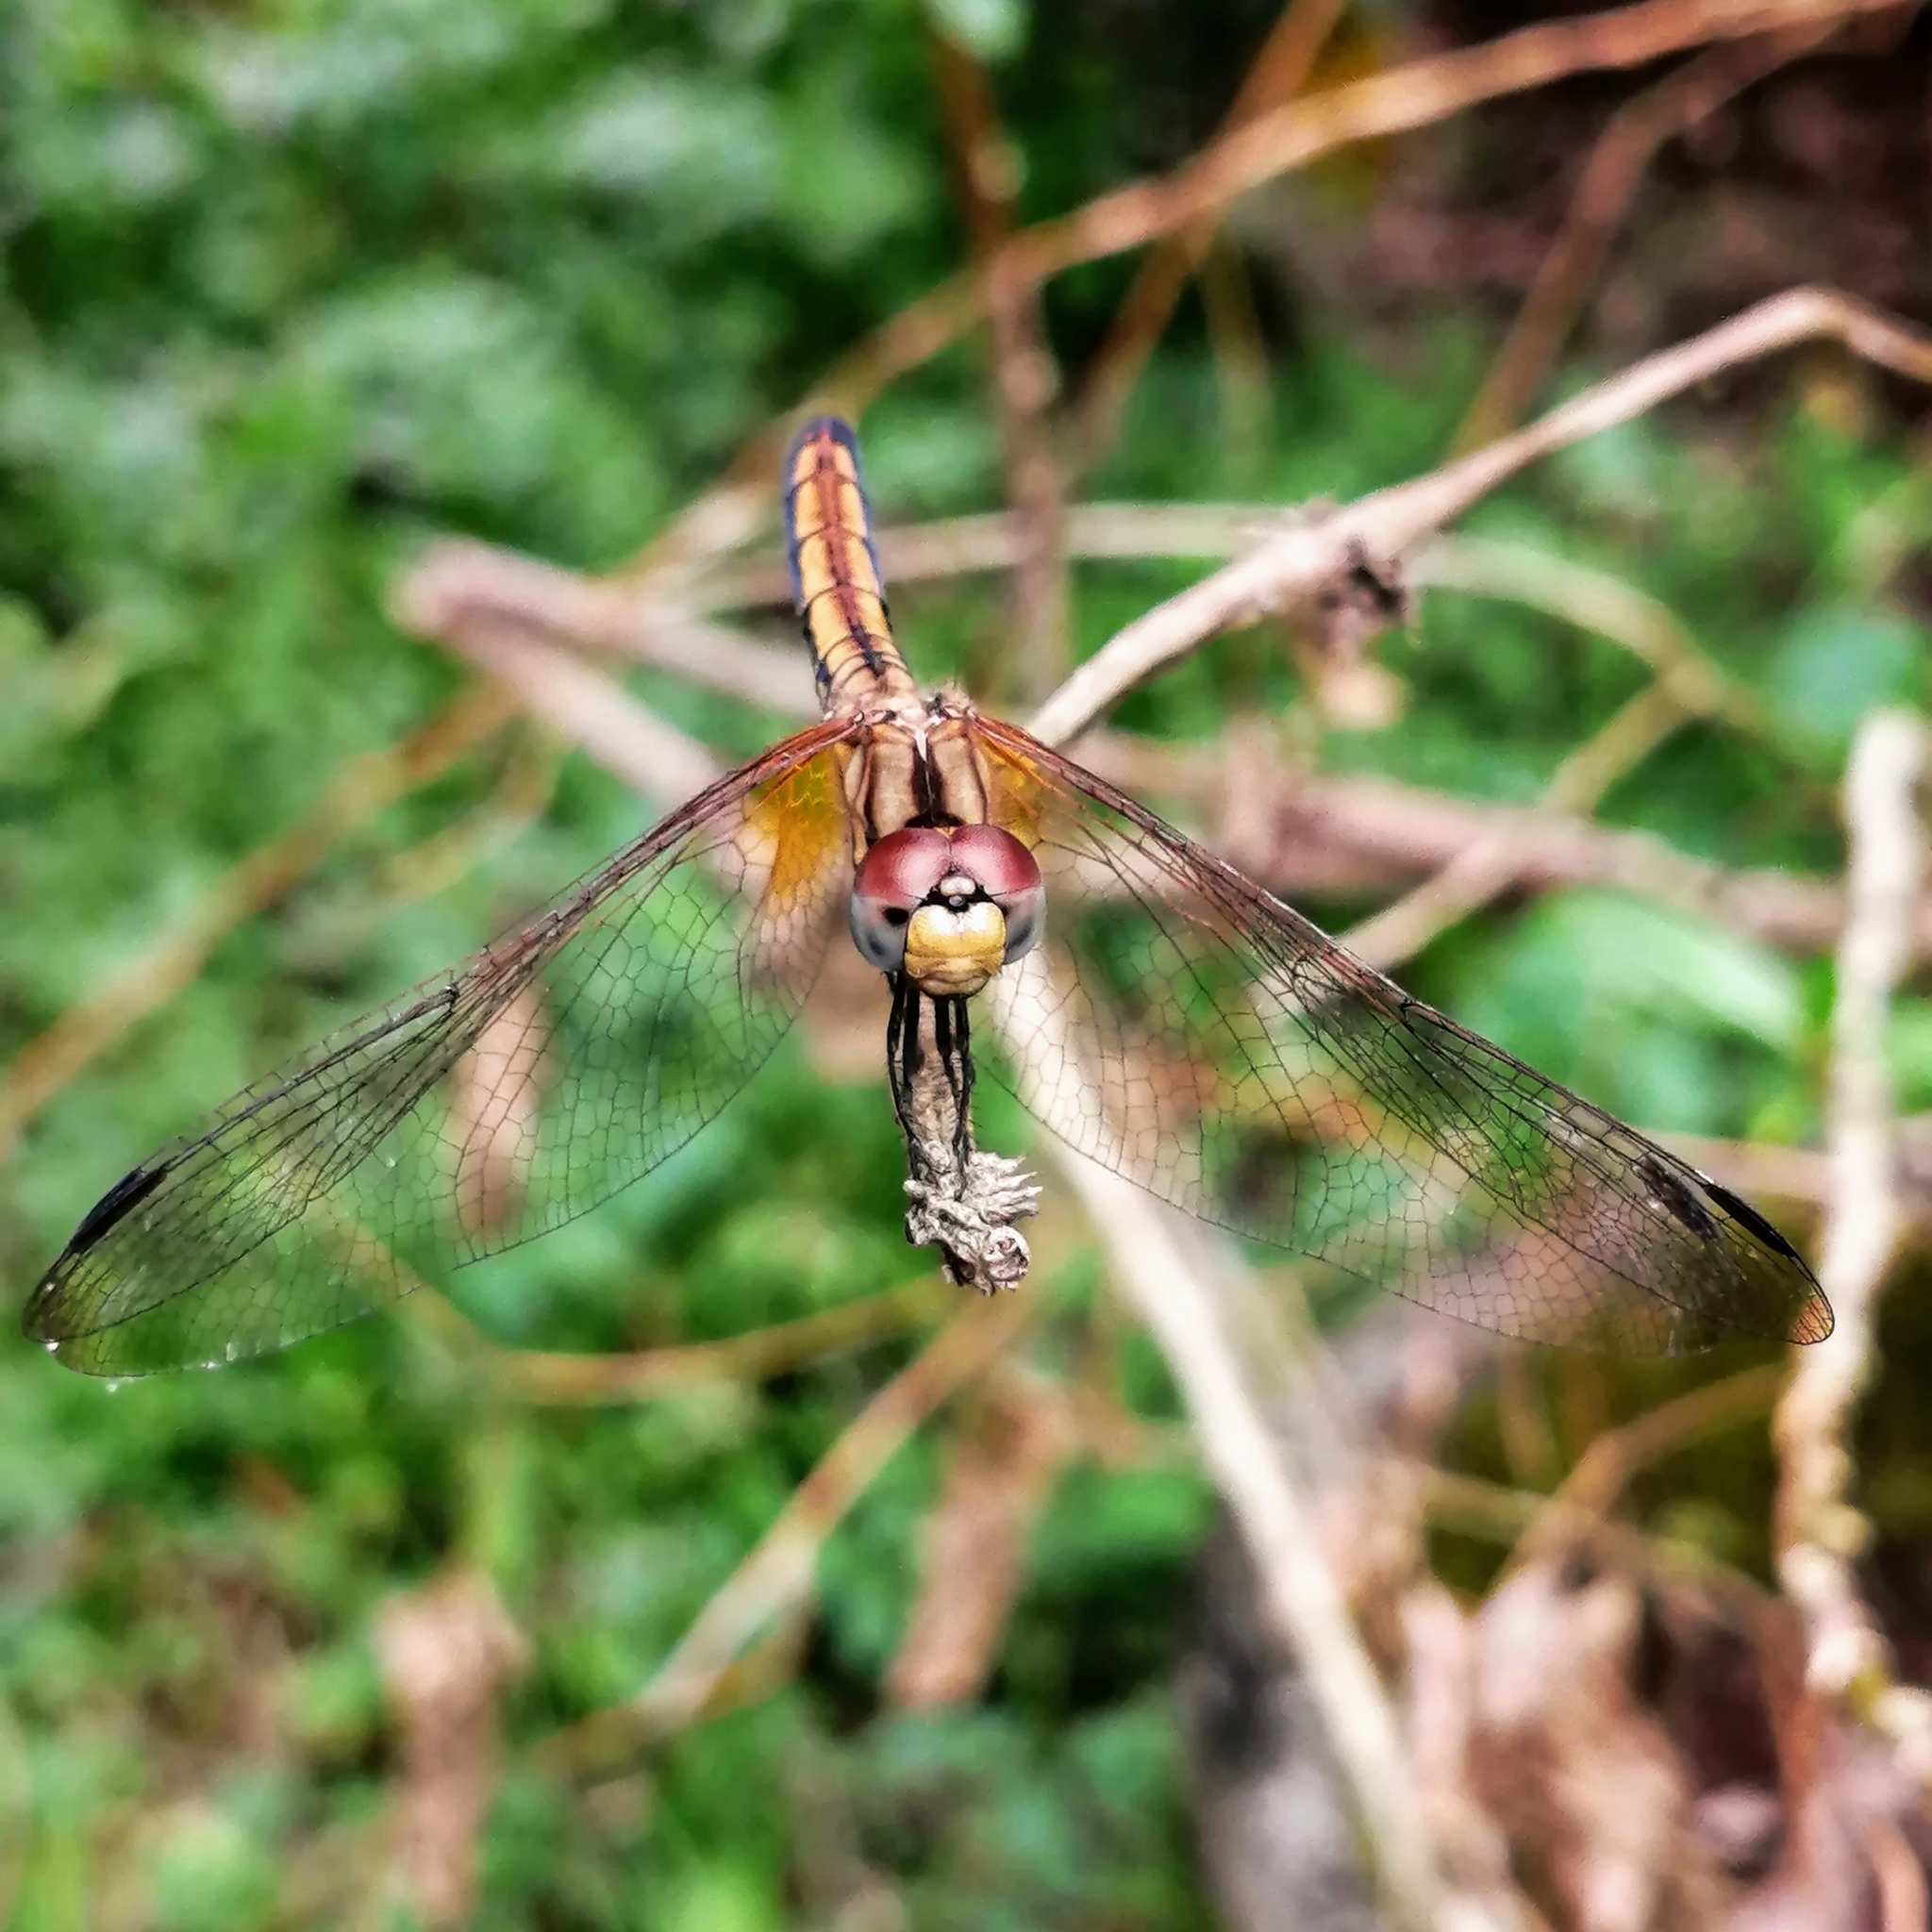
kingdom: Animalia
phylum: Arthropoda
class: Insecta
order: Odonata
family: Libellulidae
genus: Trithemis
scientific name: Trithemis aurora
